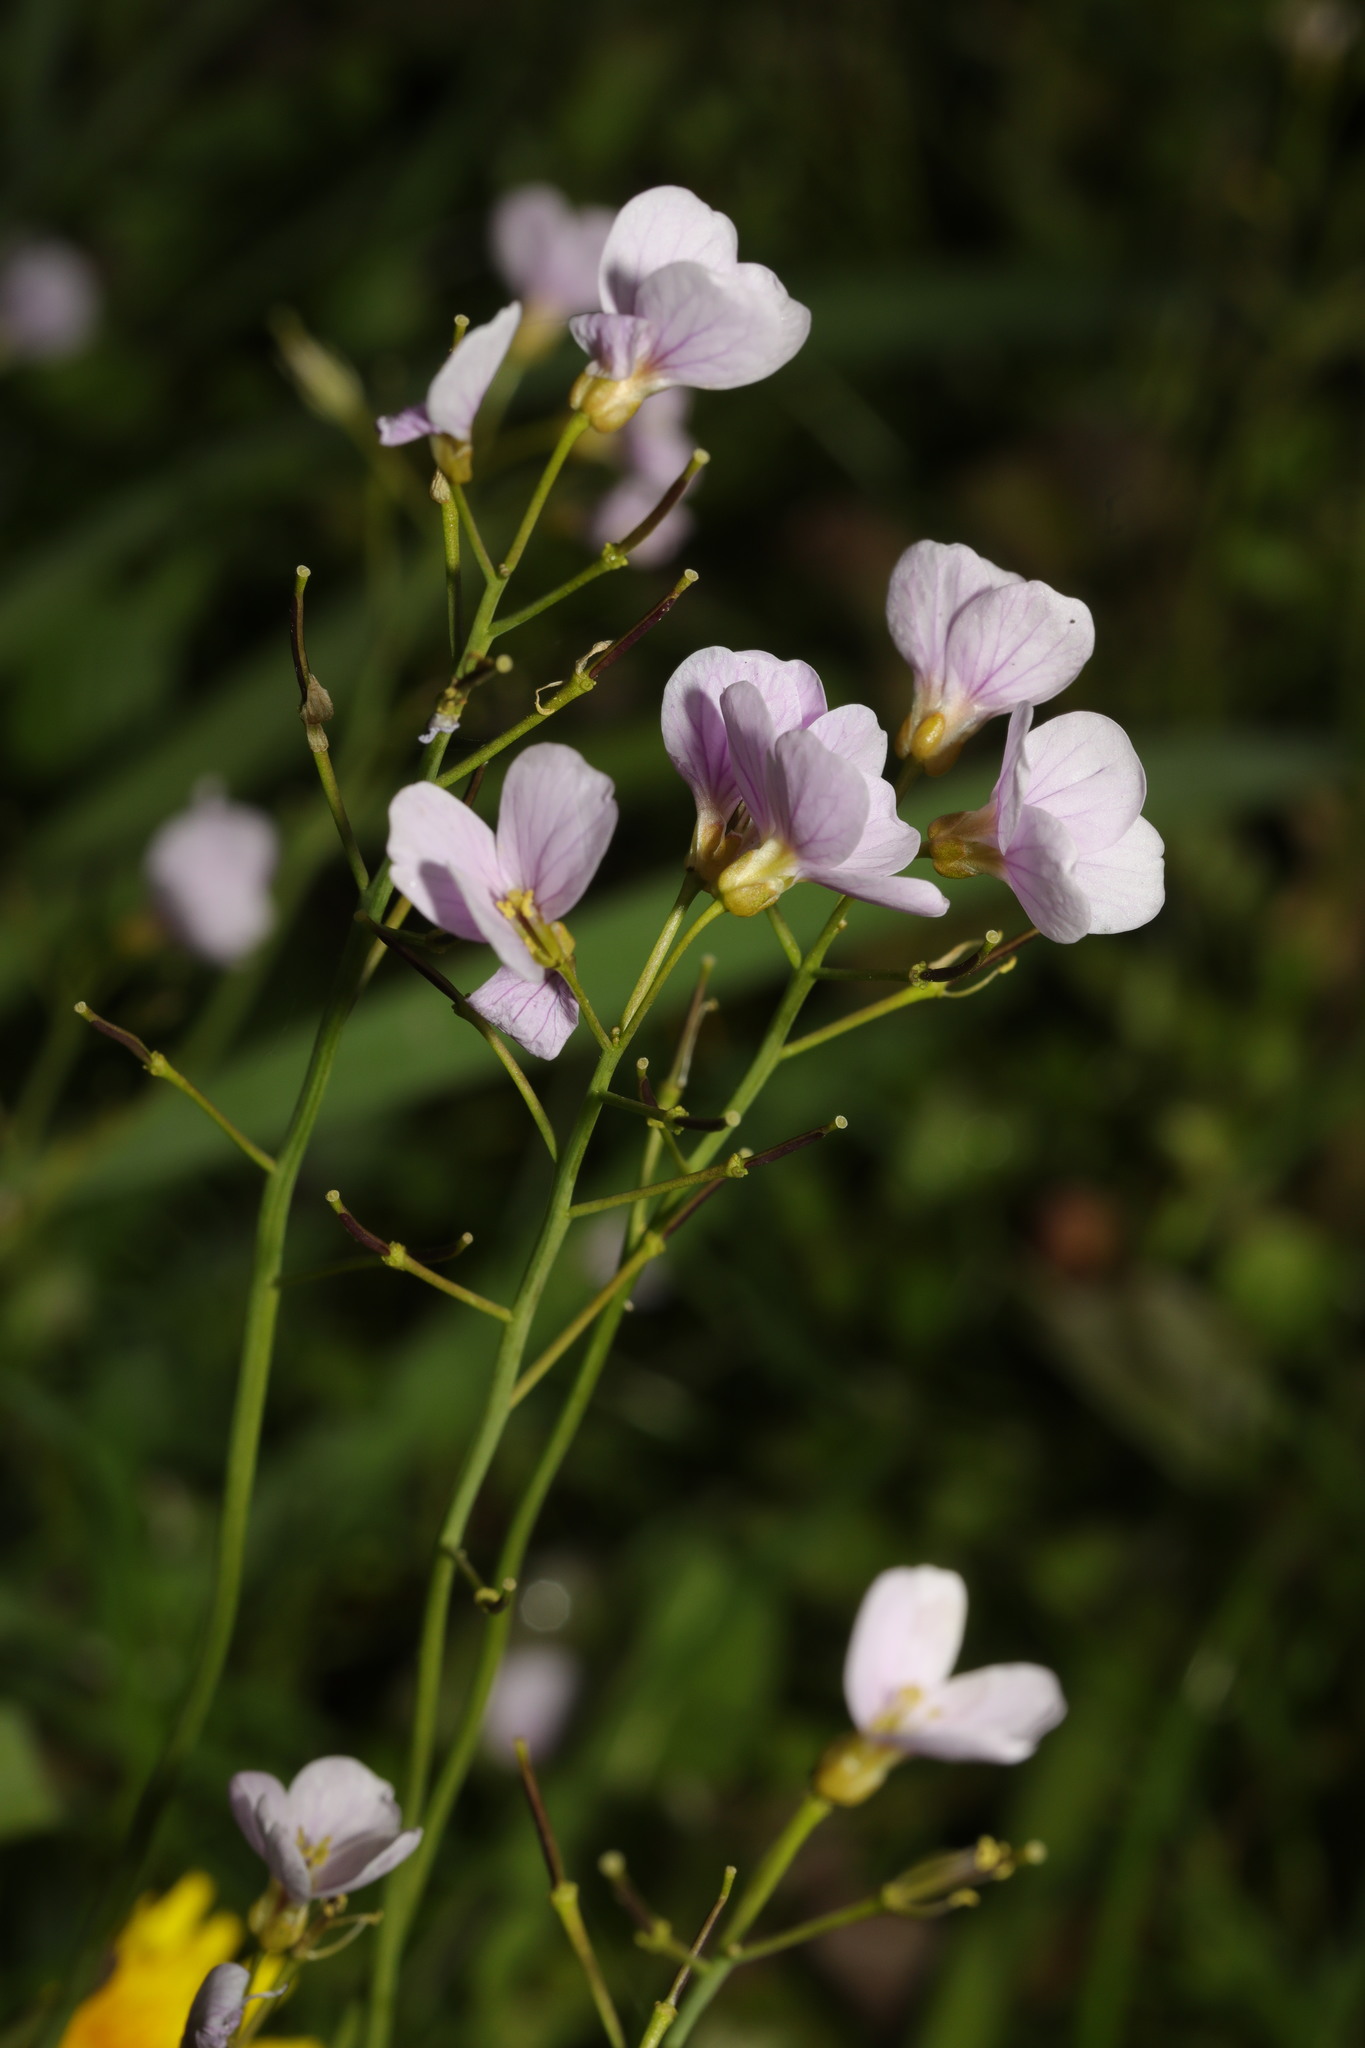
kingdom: Plantae
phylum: Tracheophyta
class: Magnoliopsida
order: Brassicales
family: Brassicaceae
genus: Cardamine
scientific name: Cardamine pratensis
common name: Cuckoo flower
